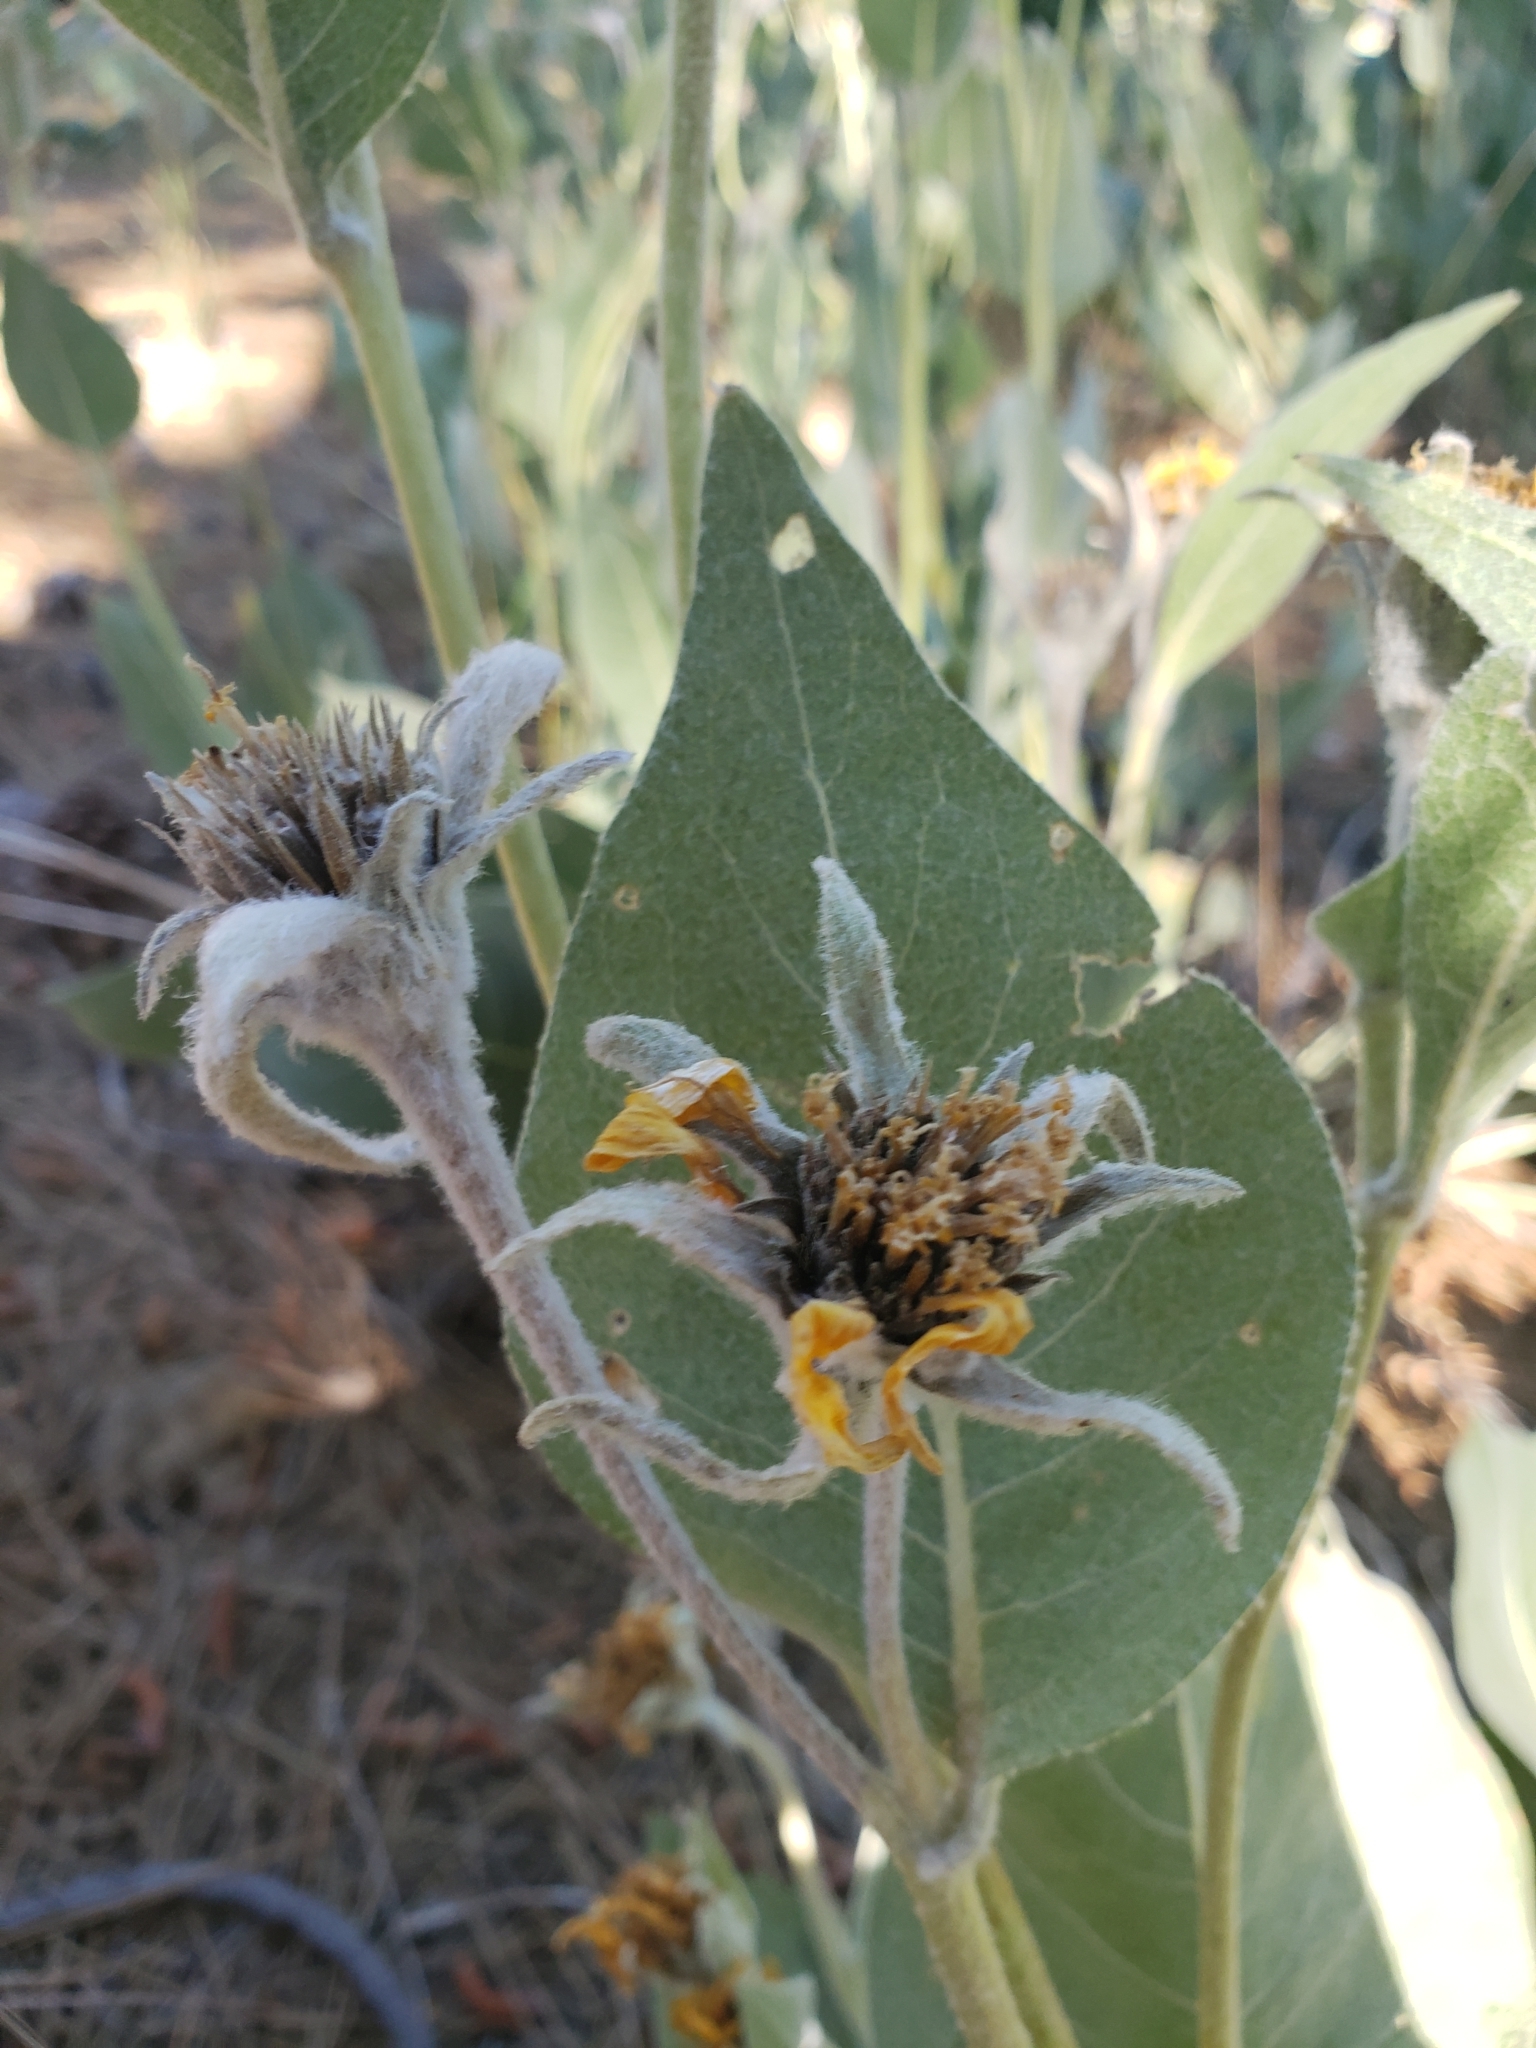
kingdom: Plantae
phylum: Tracheophyta
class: Magnoliopsida
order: Asterales
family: Asteraceae
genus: Wyethia
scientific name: Wyethia mollis
